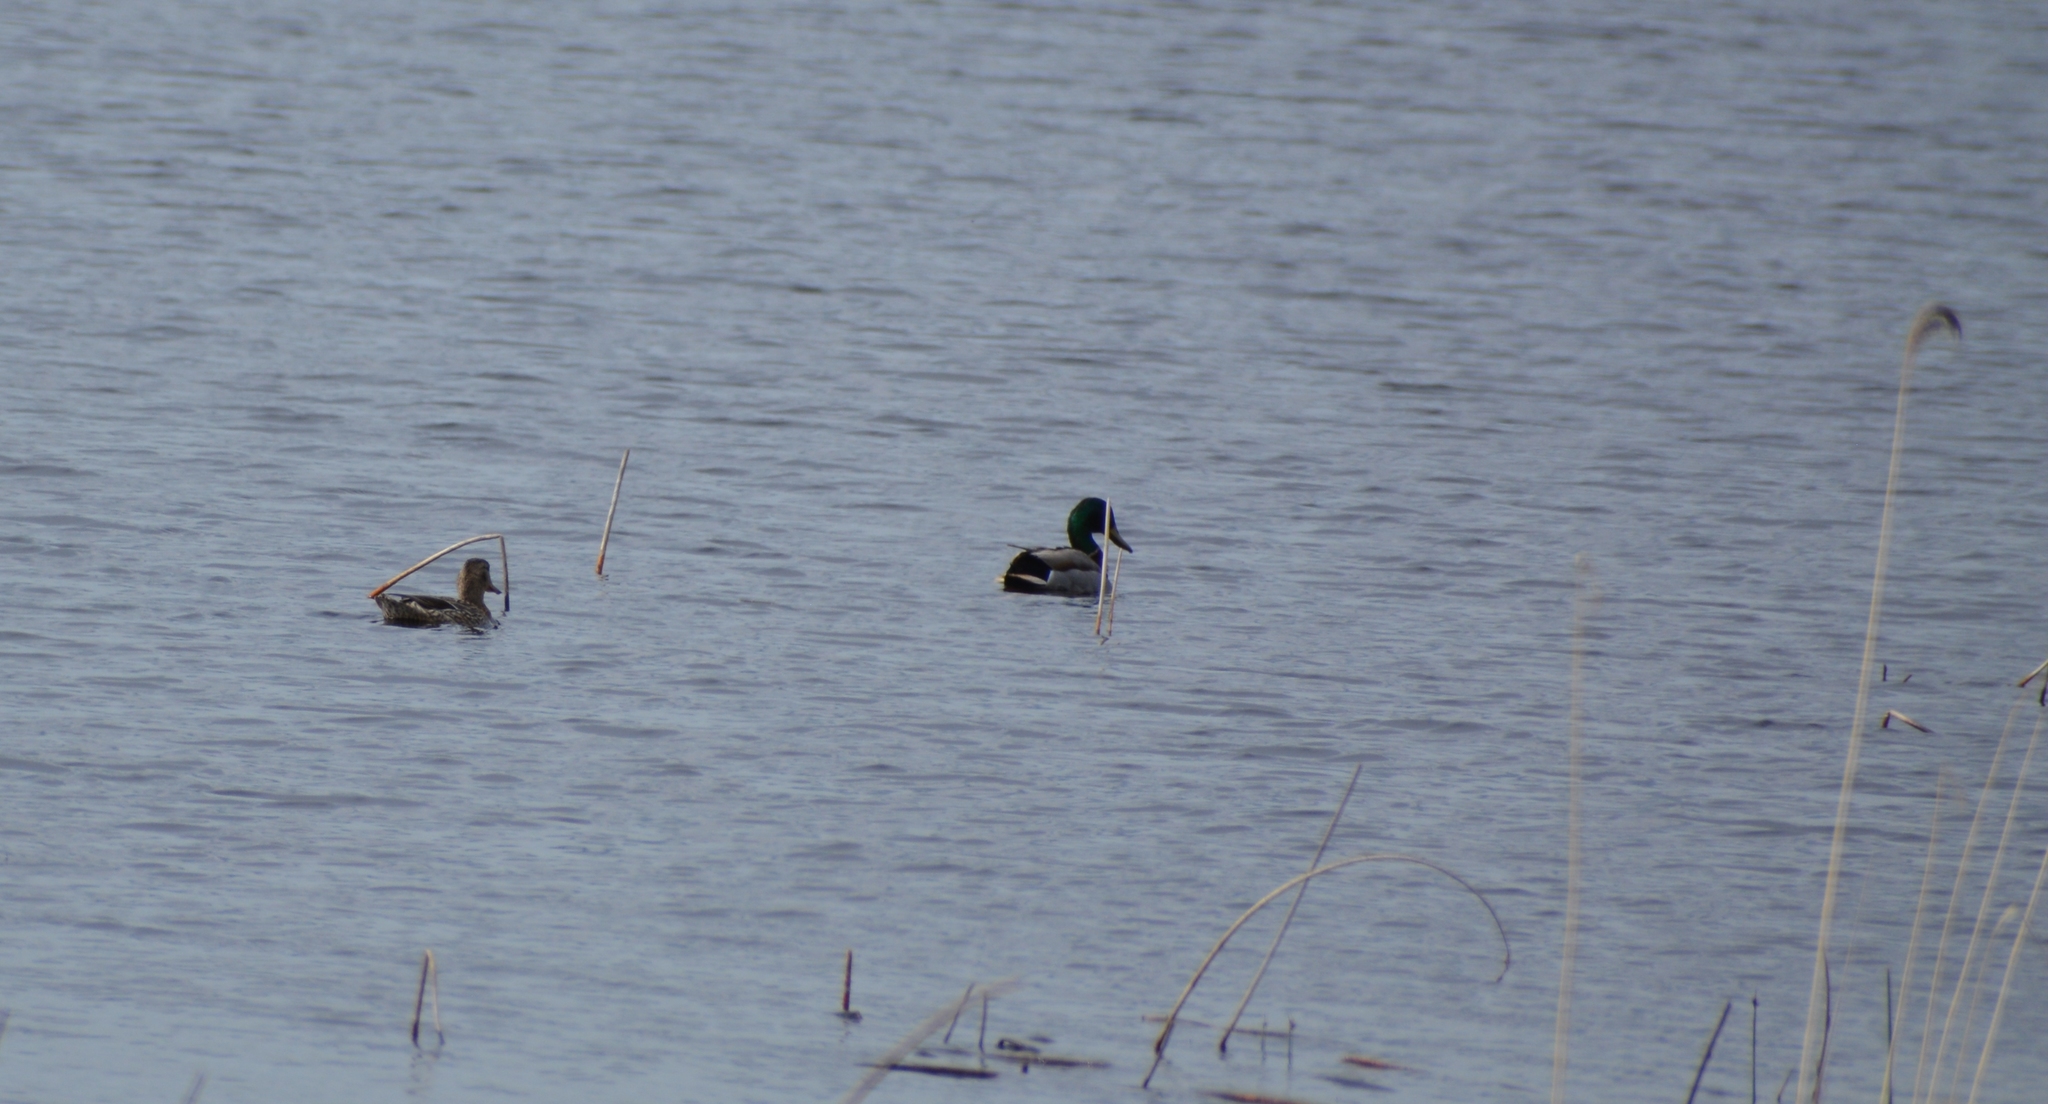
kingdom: Animalia
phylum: Chordata
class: Aves
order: Anseriformes
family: Anatidae
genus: Anas
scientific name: Anas platyrhynchos
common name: Mallard
